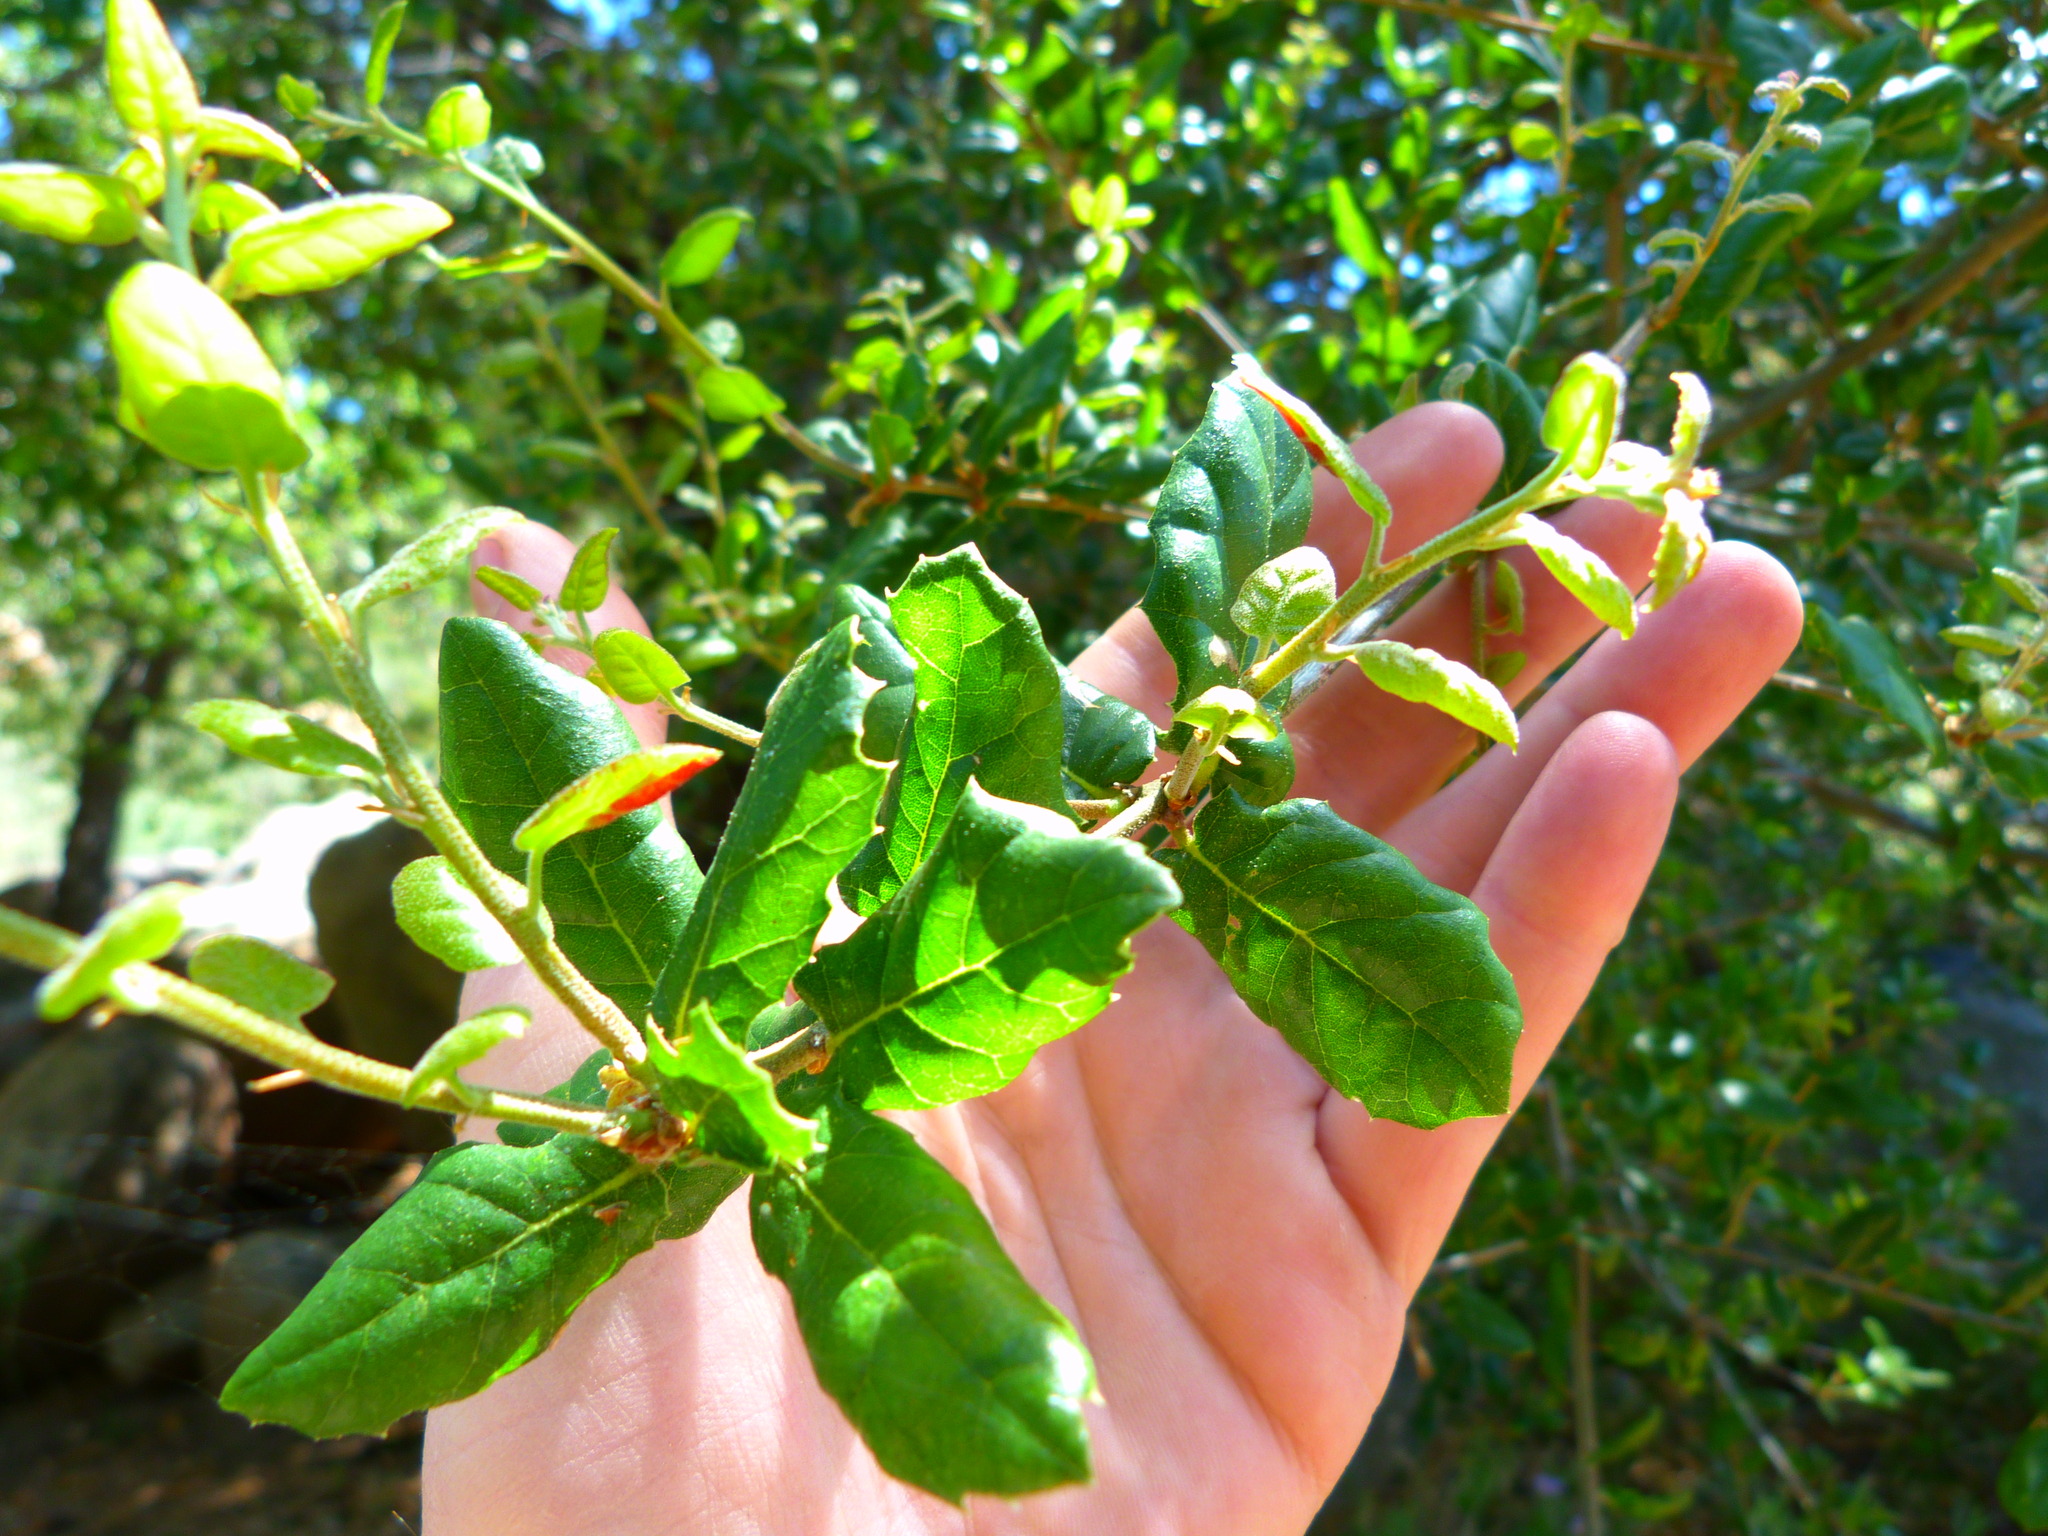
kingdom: Plantae
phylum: Tracheophyta
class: Magnoliopsida
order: Fagales
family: Fagaceae
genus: Quercus
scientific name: Quercus agrifolia
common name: California live oak
